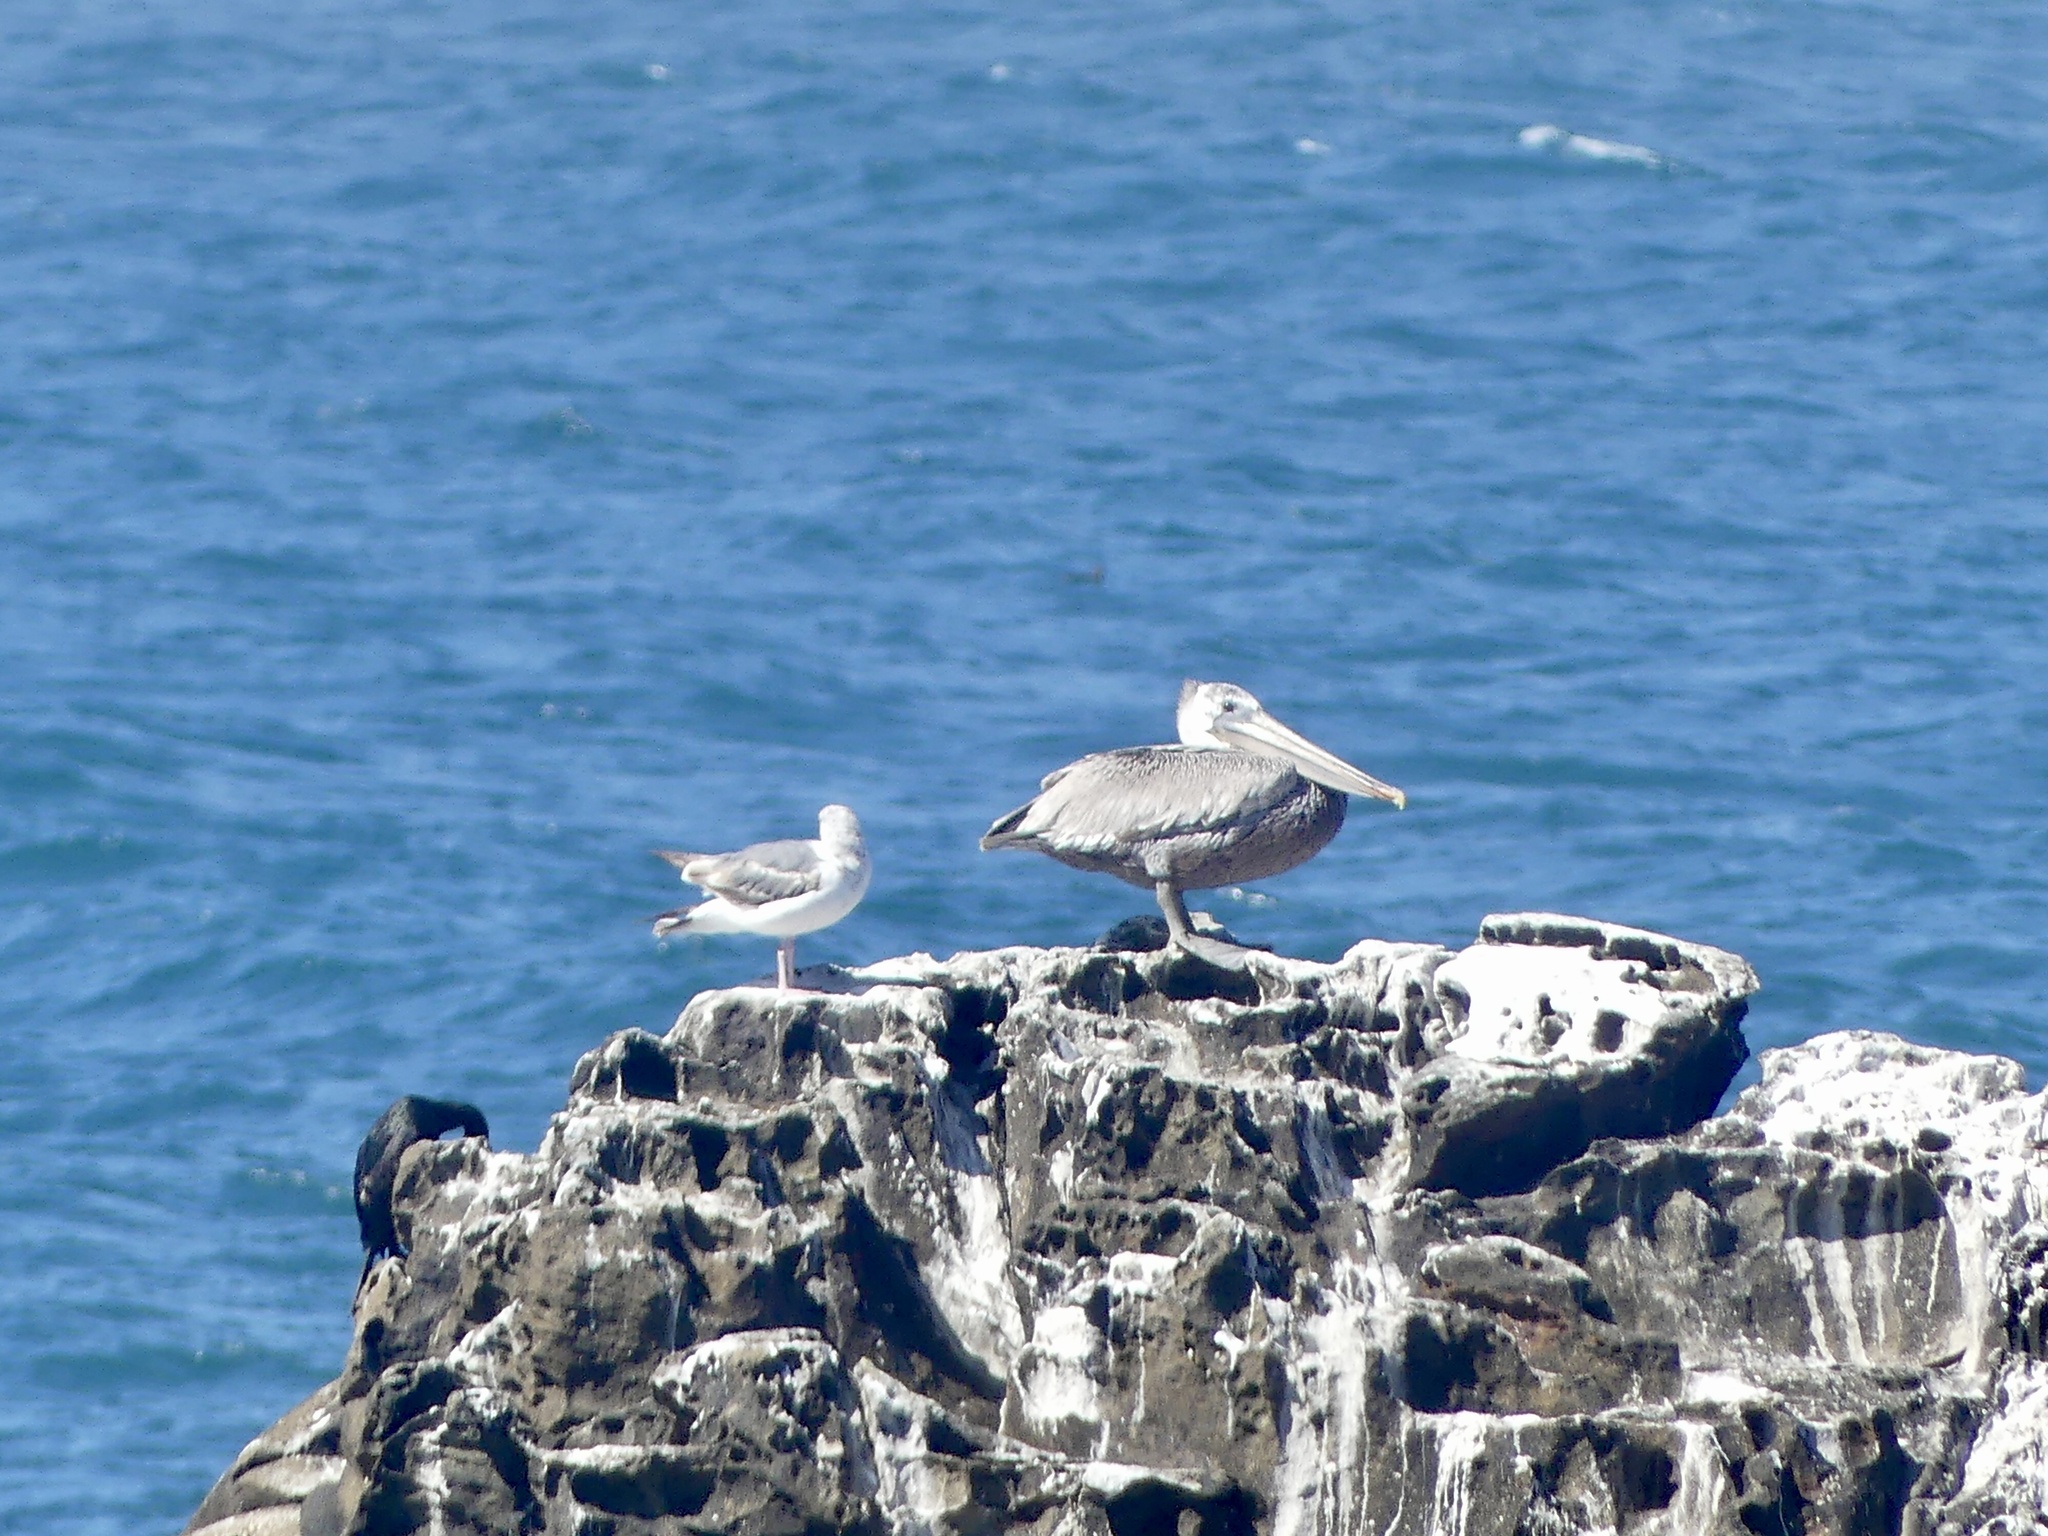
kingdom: Animalia
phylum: Chordata
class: Aves
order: Pelecaniformes
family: Pelecanidae
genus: Pelecanus
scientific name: Pelecanus occidentalis
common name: Brown pelican
